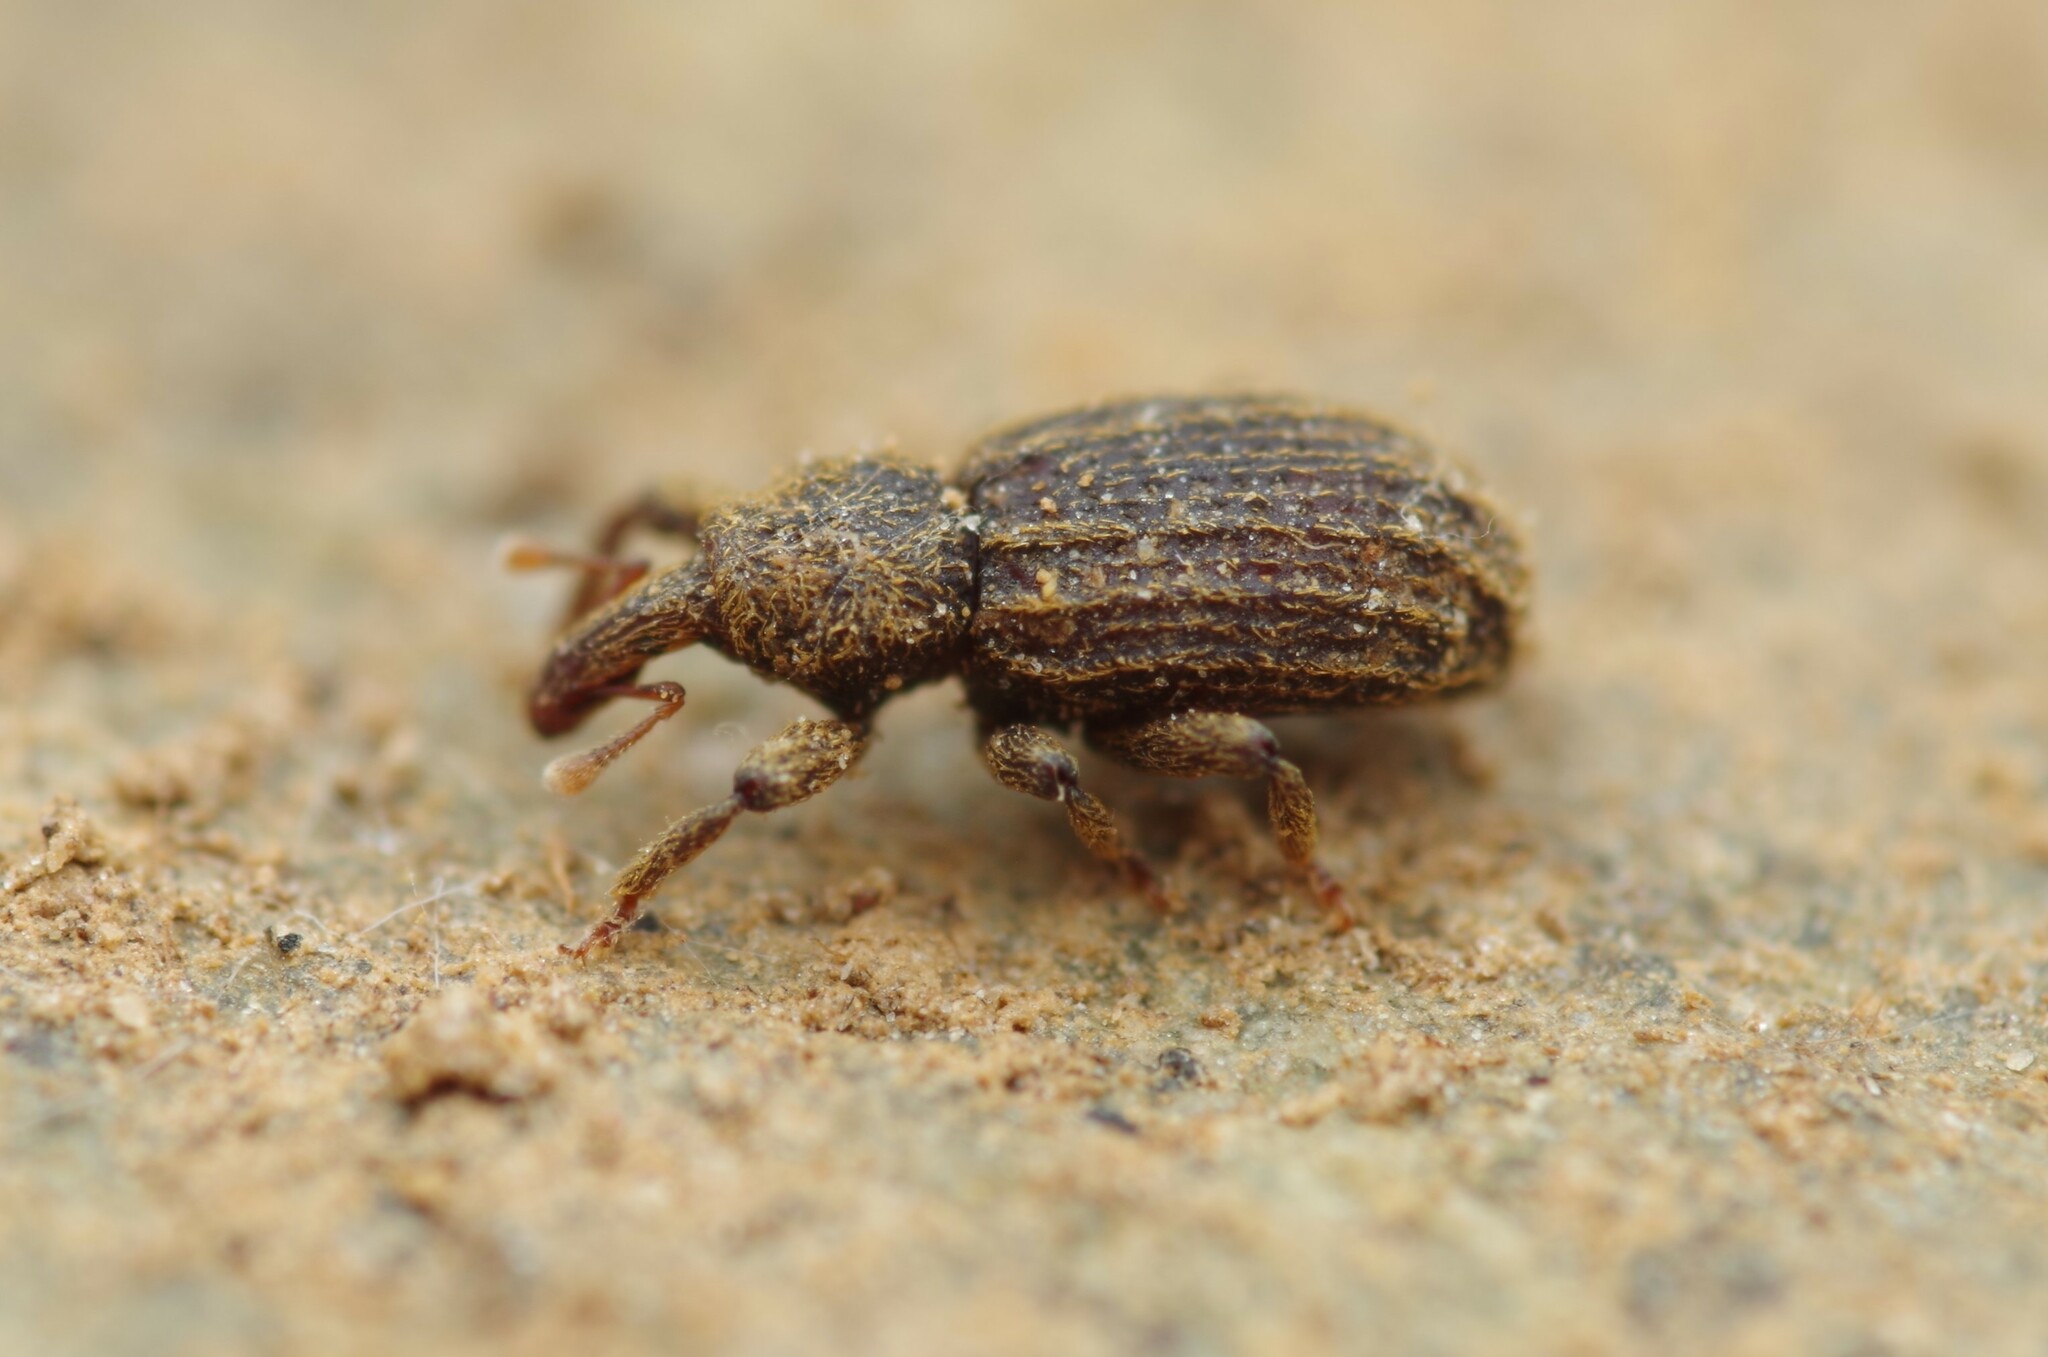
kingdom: Animalia
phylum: Arthropoda
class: Insecta
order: Coleoptera
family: Curculionidae
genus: Anchonidium
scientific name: Anchonidium unguiculare
